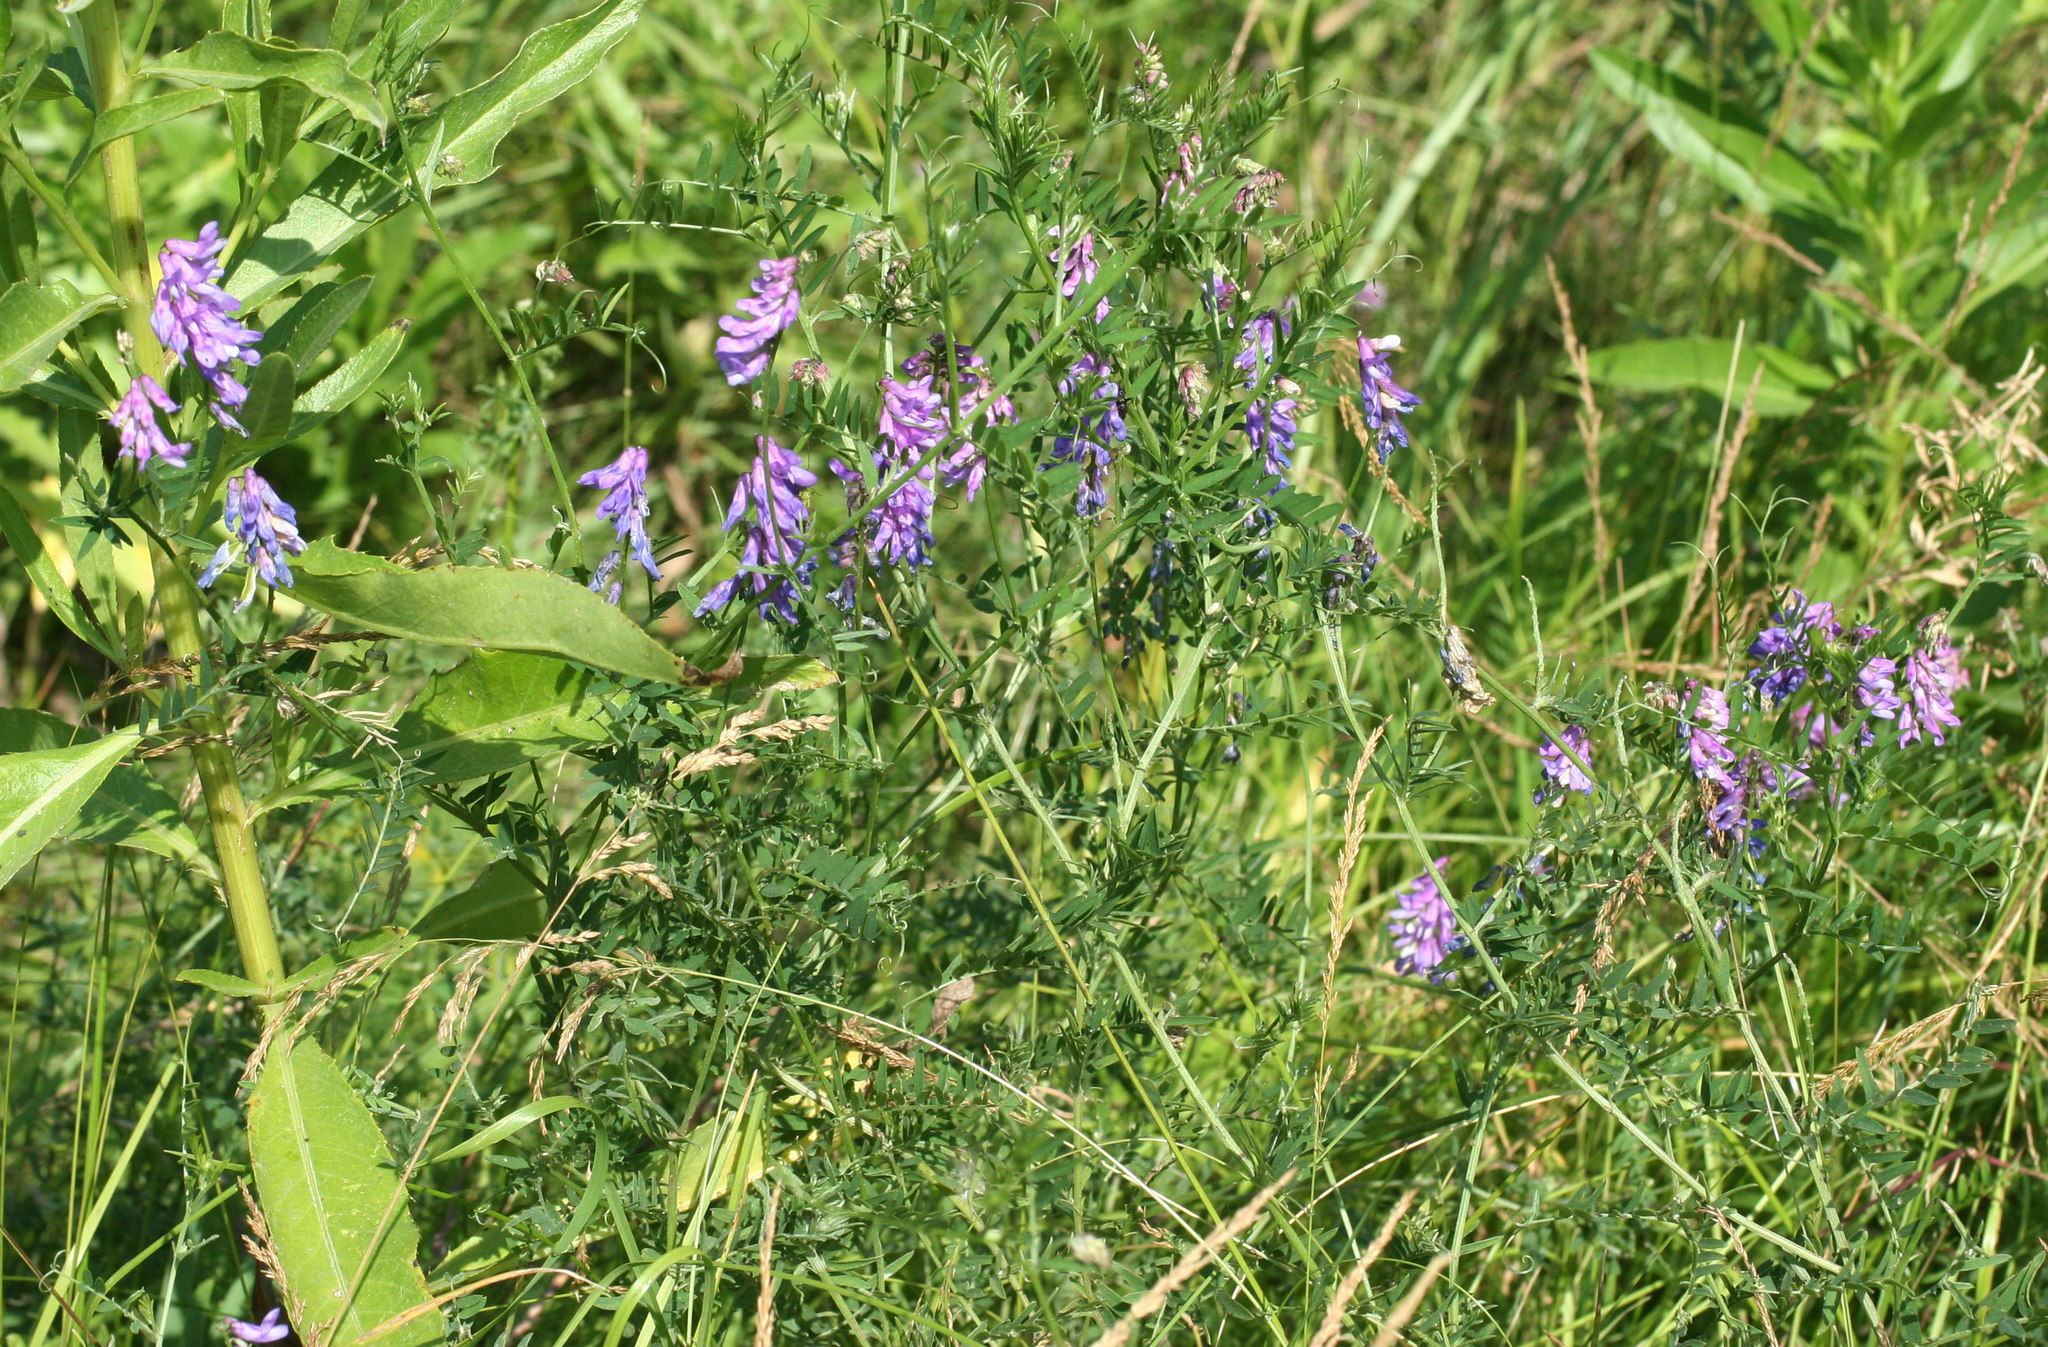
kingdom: Plantae
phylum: Tracheophyta
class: Magnoliopsida
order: Fabales
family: Fabaceae
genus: Vicia
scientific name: Vicia cracca
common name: Bird vetch
